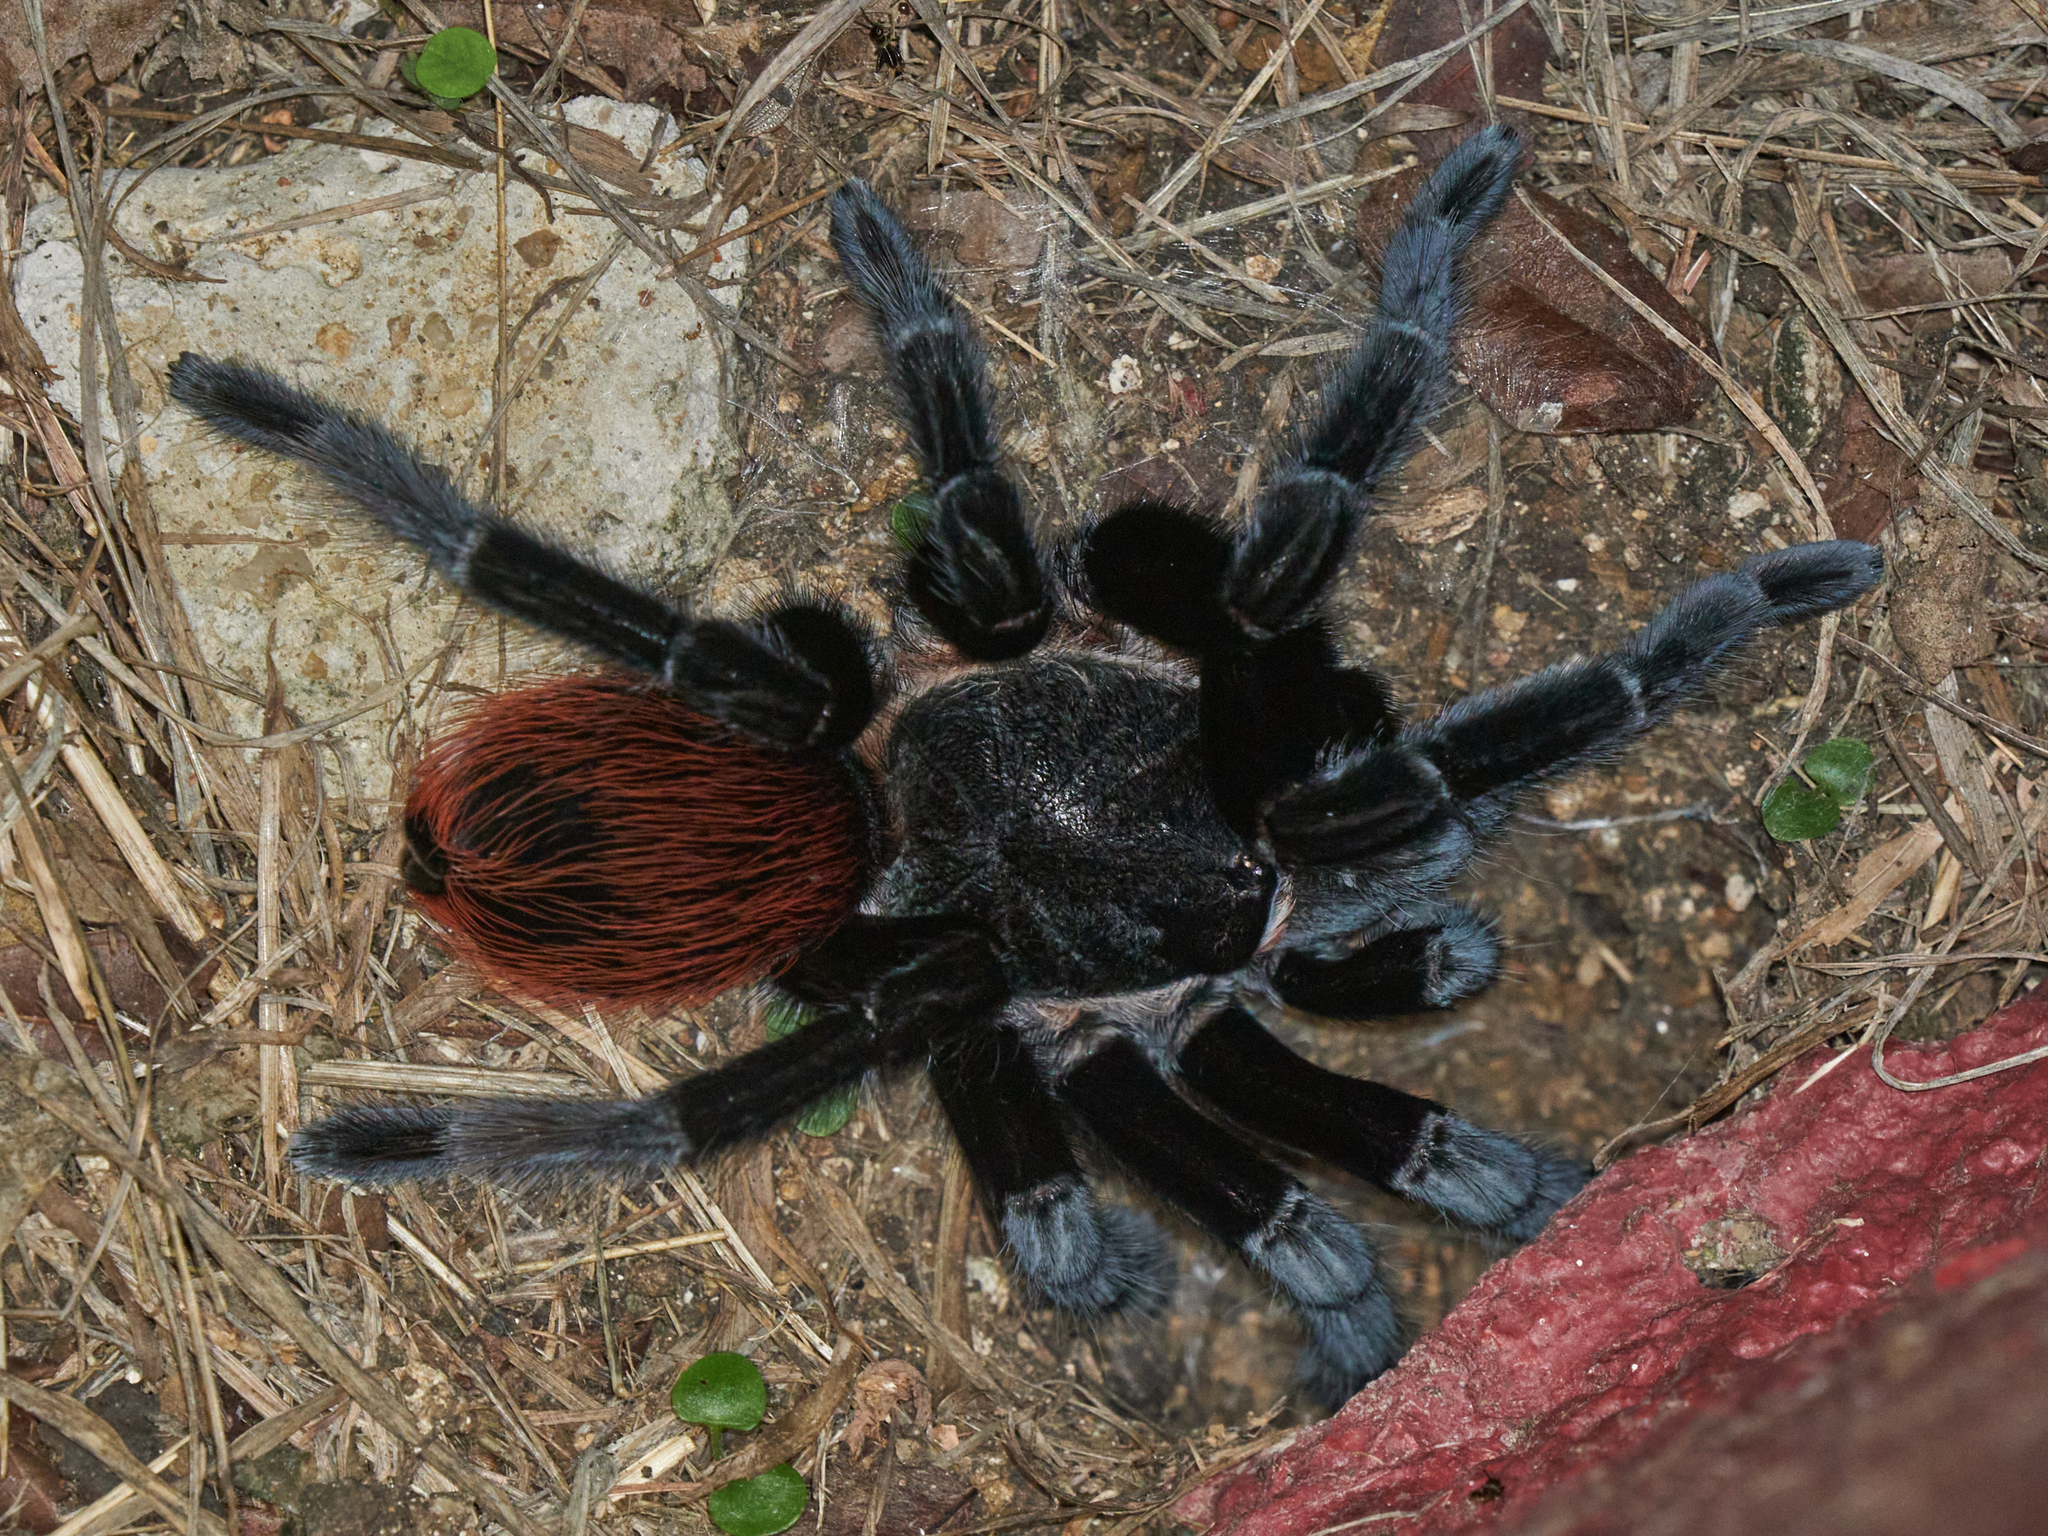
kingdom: Animalia
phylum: Arthropoda
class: Arachnida
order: Araneae
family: Theraphosidae
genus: Tliltocatl
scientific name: Tliltocatl vagans
